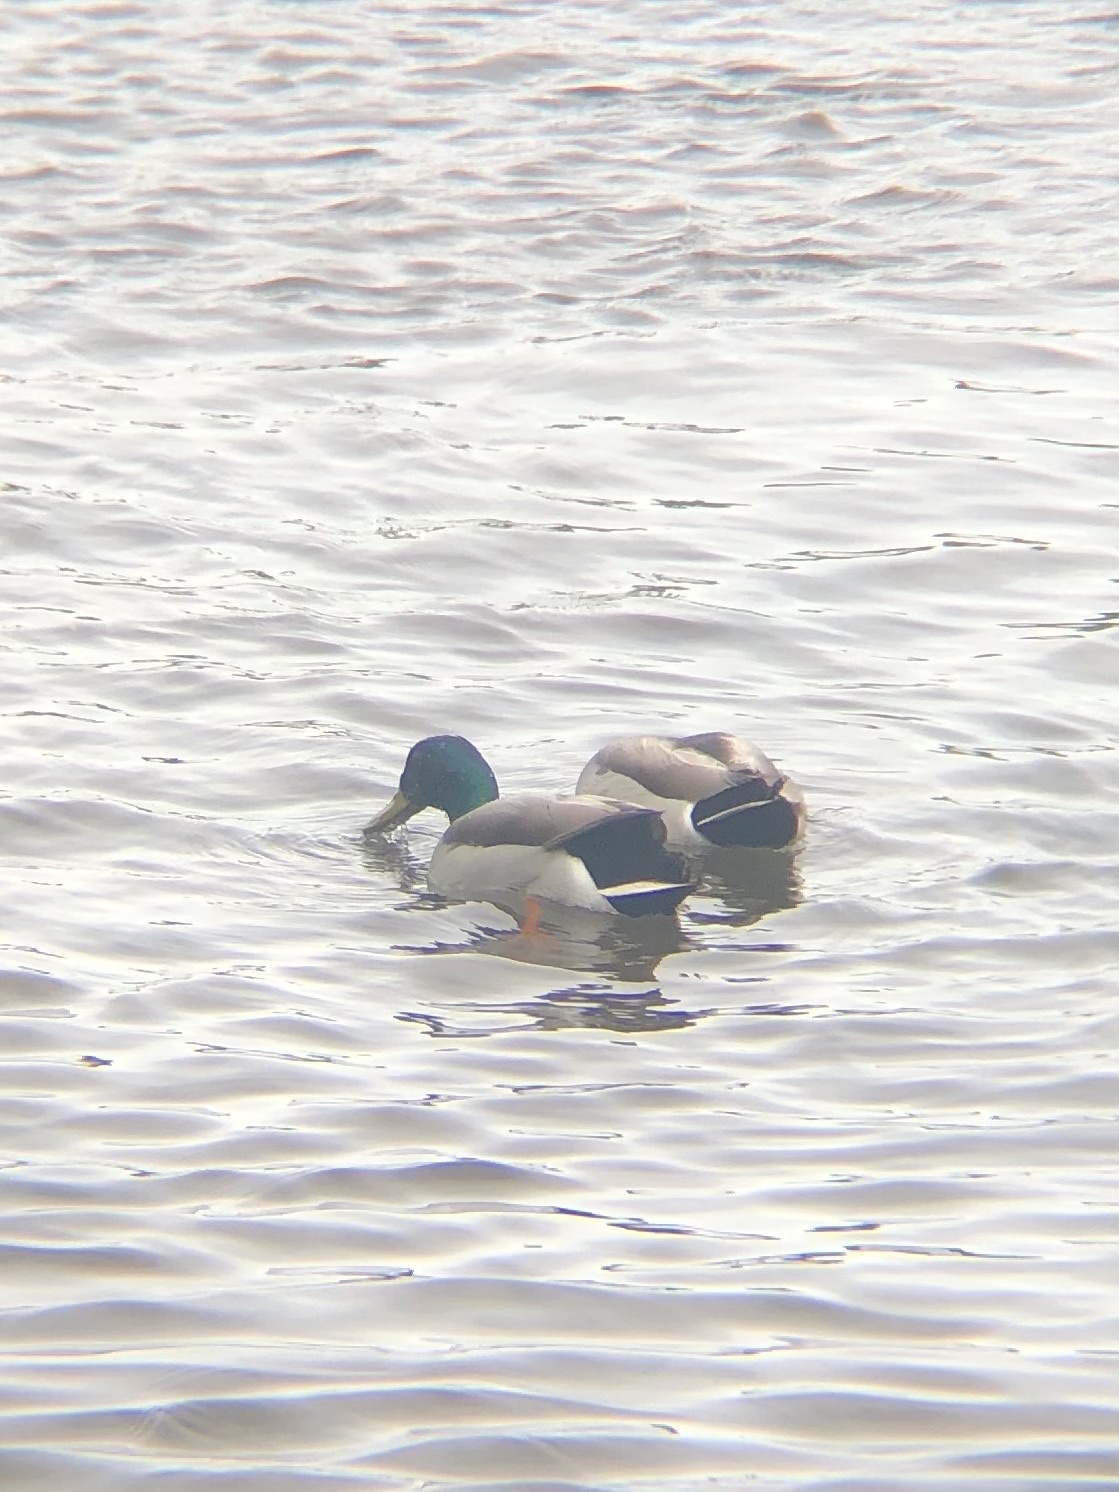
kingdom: Animalia
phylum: Chordata
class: Aves
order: Anseriformes
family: Anatidae
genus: Anas
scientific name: Anas platyrhynchos
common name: Mallard
